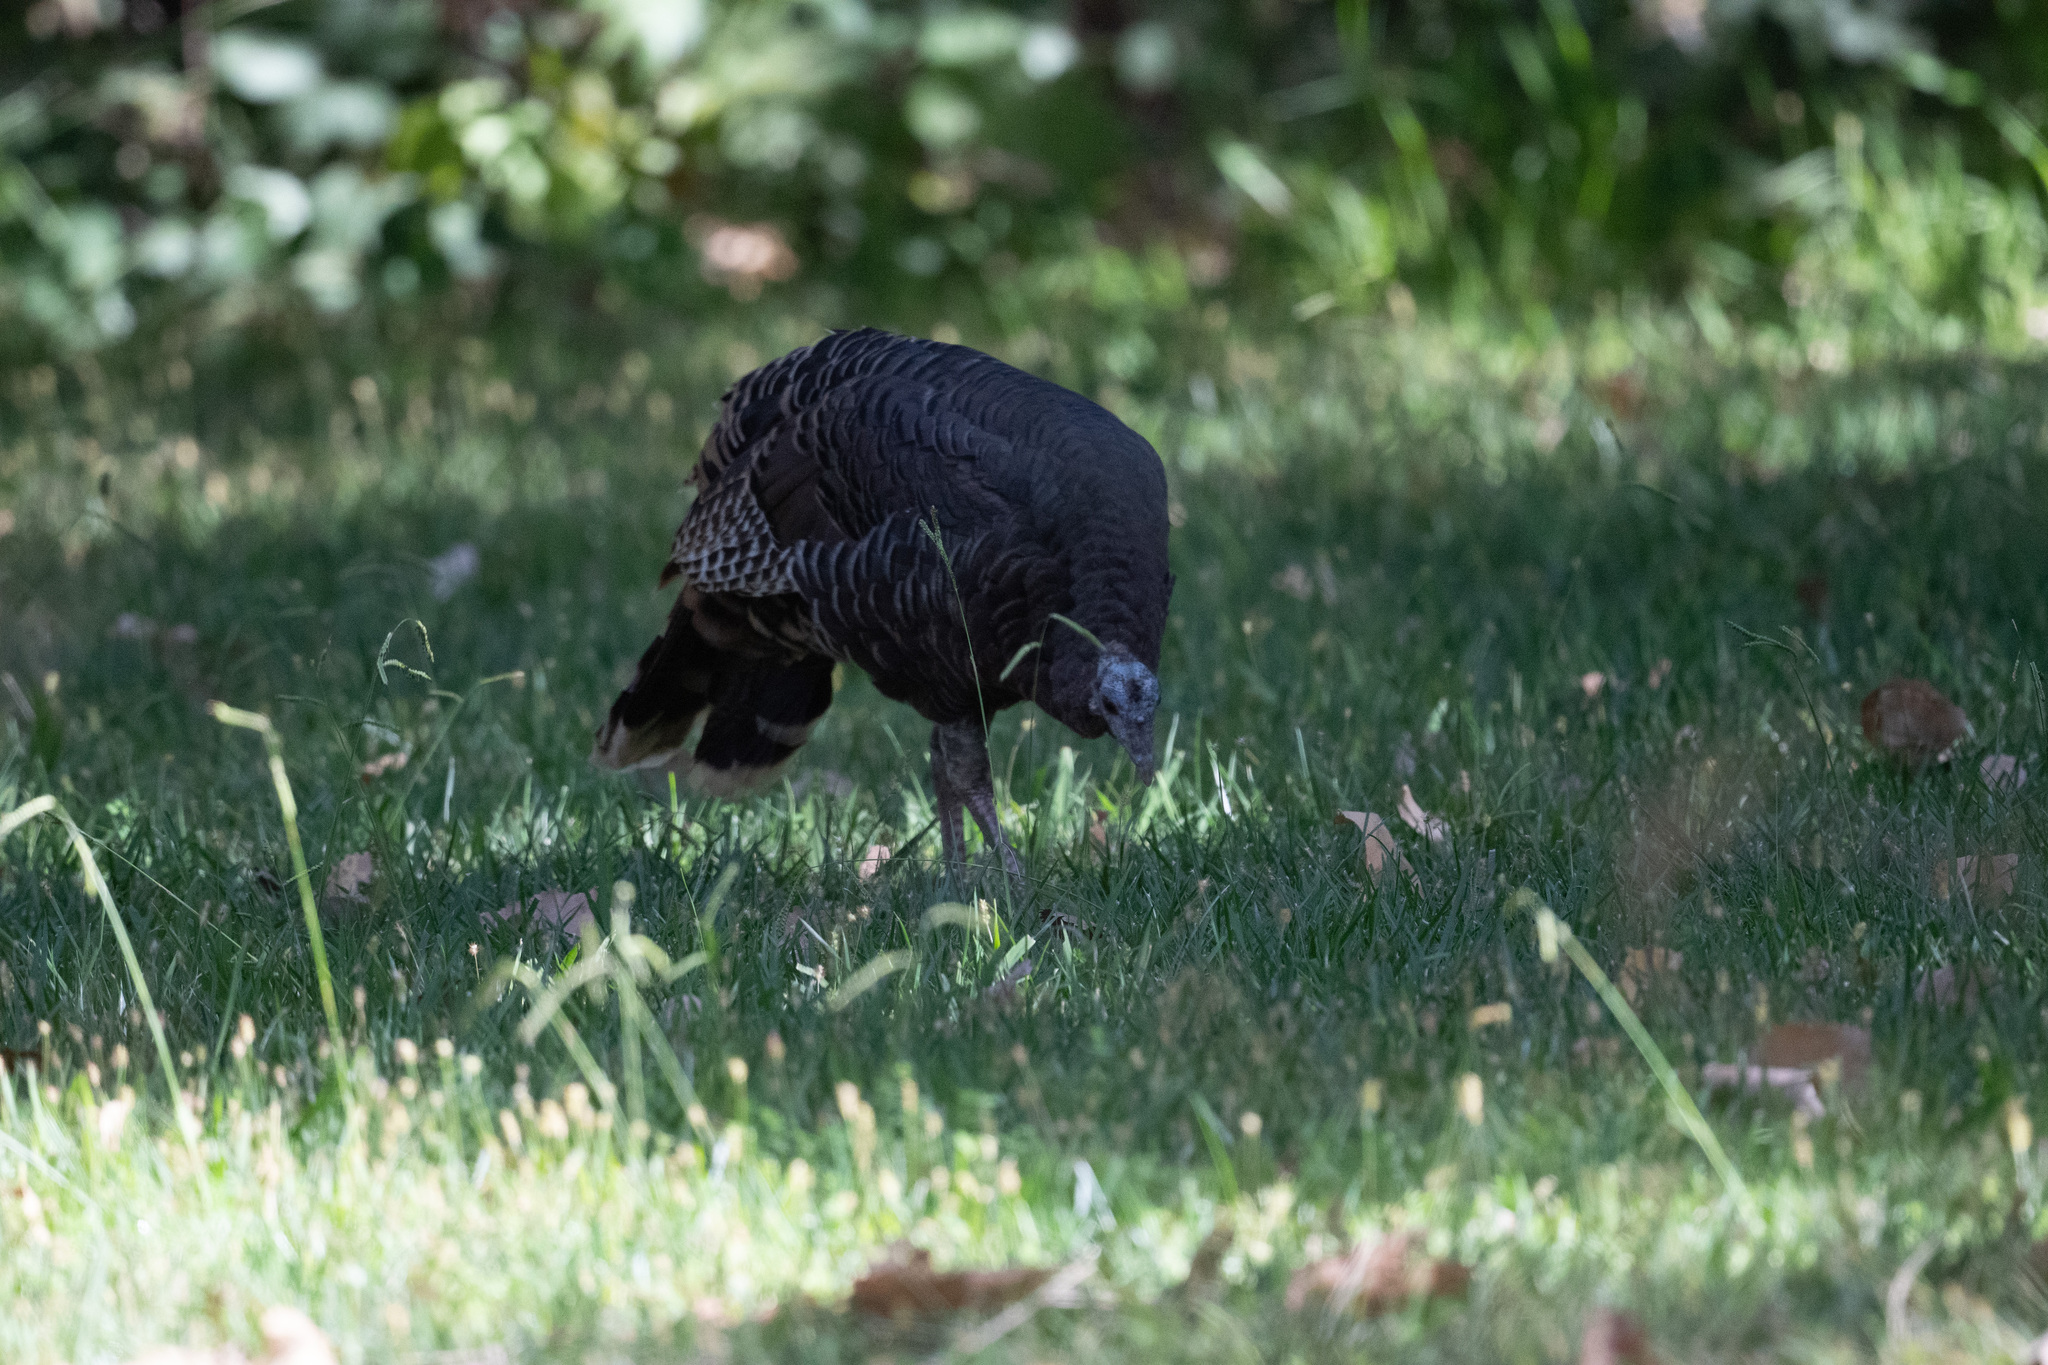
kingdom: Animalia
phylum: Chordata
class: Aves
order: Galliformes
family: Phasianidae
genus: Meleagris
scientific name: Meleagris gallopavo
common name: Wild turkey
